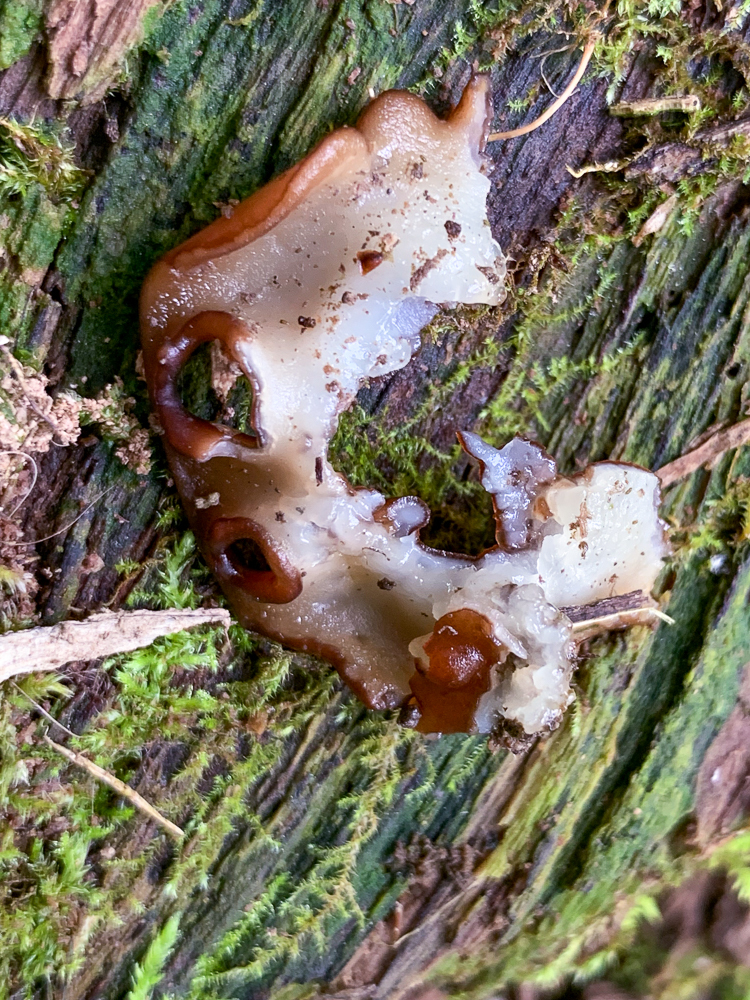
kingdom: Fungi
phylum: Ascomycota
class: Pezizomycetes
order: Pezizales
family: Pezizaceae
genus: Pachyella
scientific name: Pachyella clypeata
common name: Copper penny fungus
